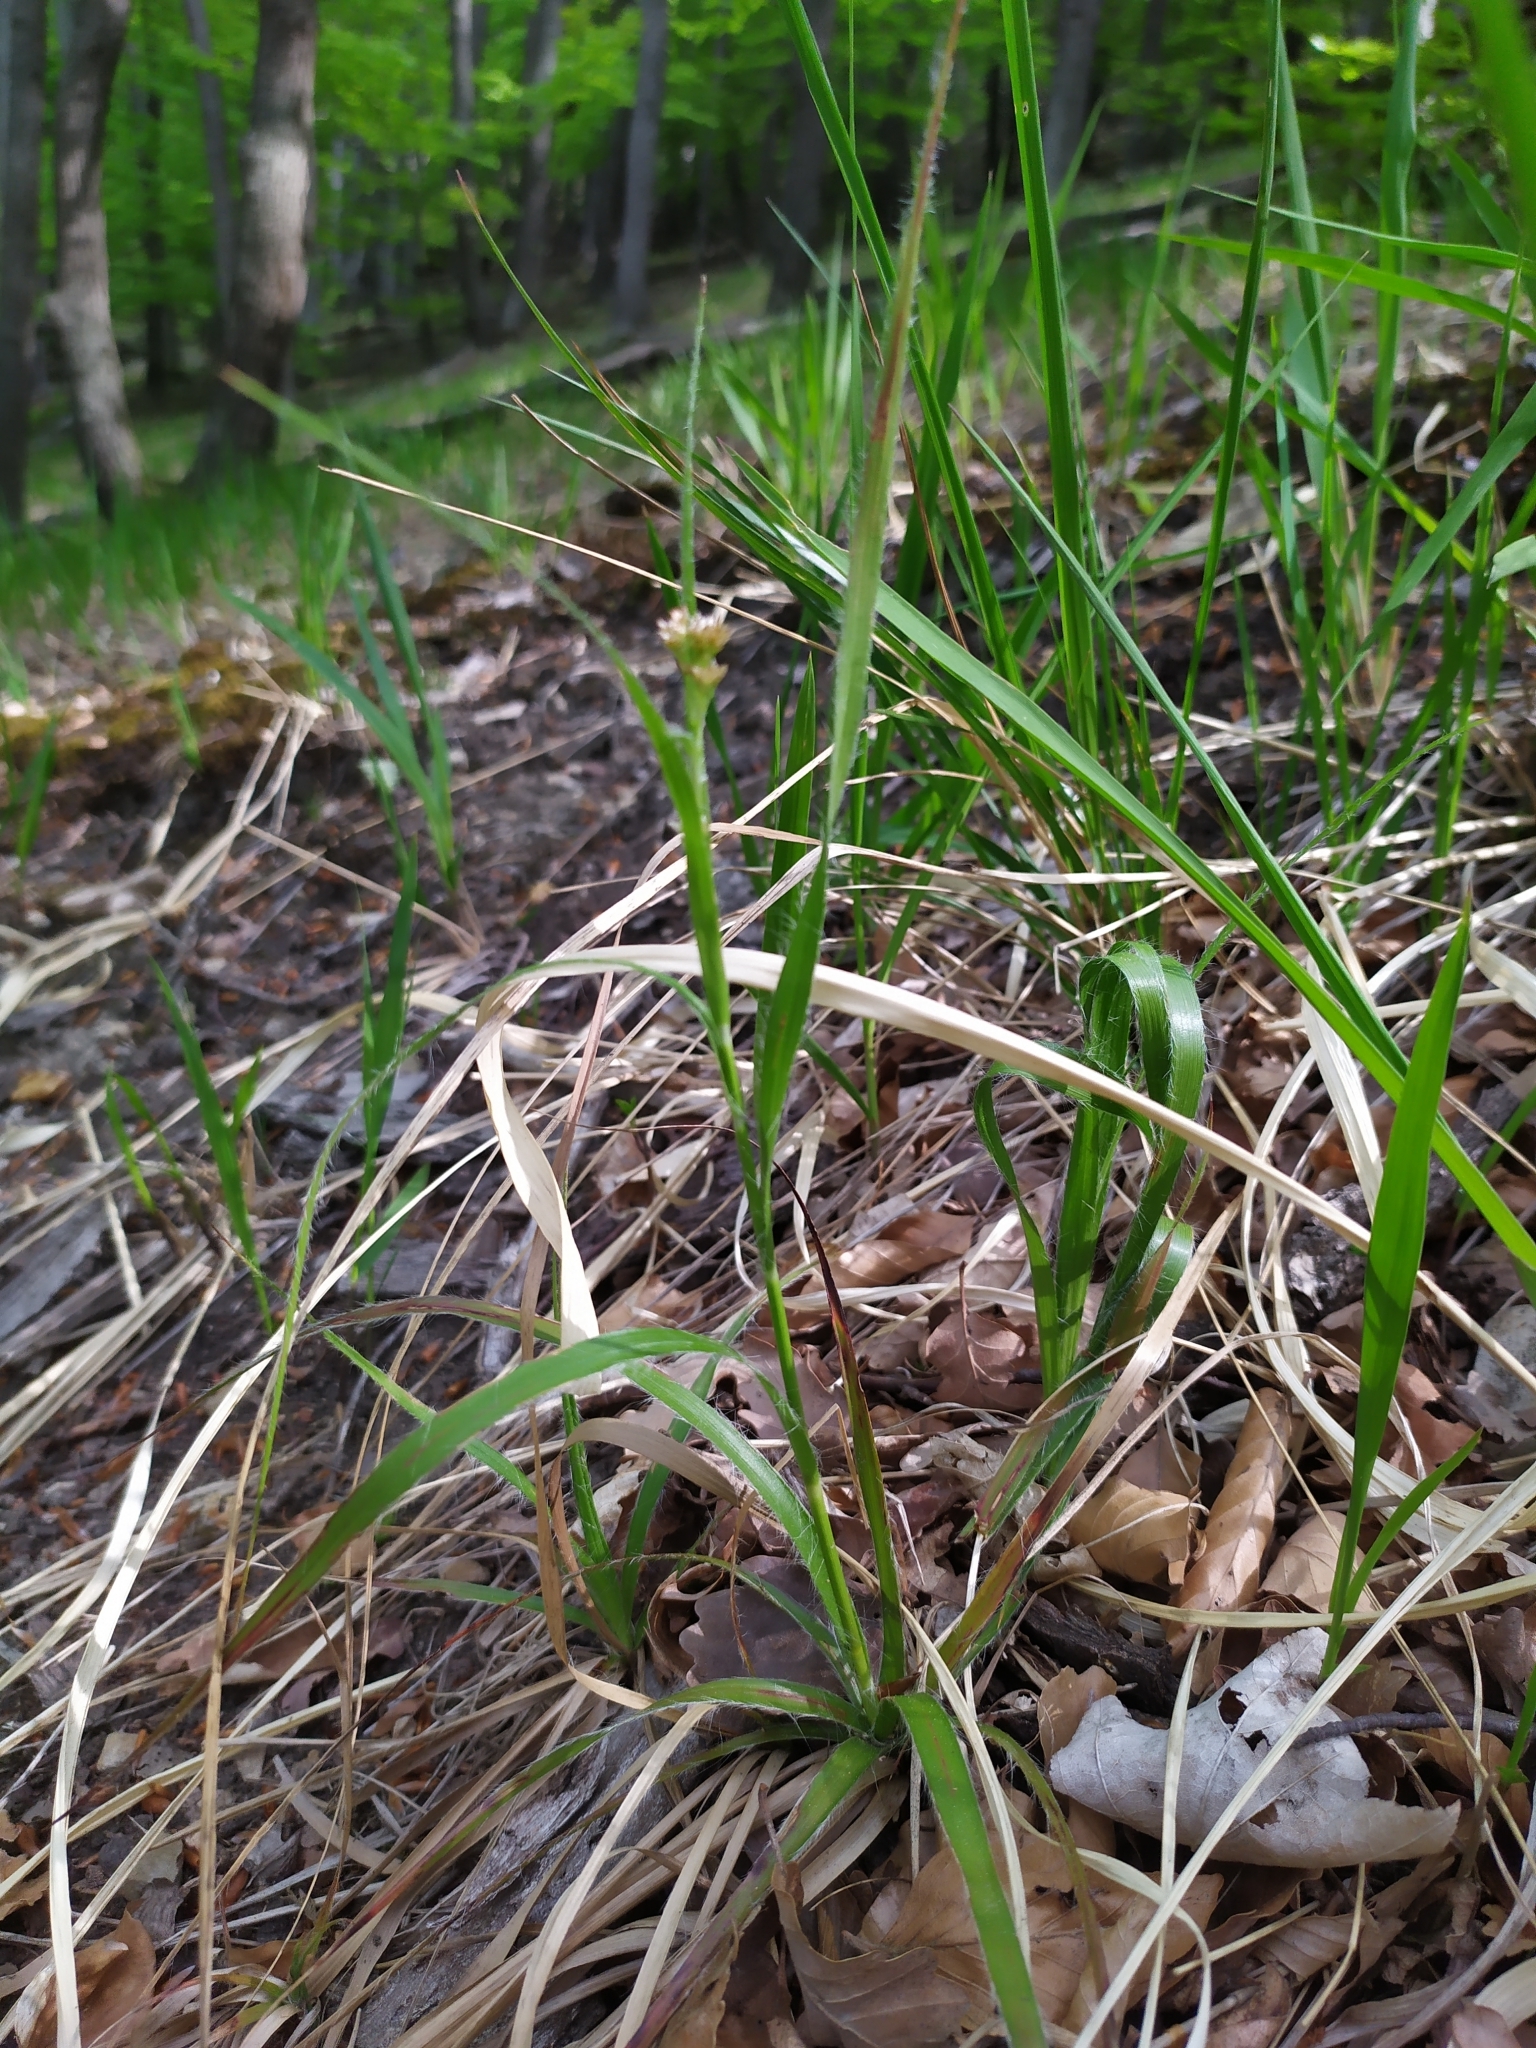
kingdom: Plantae
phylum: Tracheophyta
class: Liliopsida
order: Poales
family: Juncaceae
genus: Luzula
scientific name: Luzula luzuloides
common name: White wood-rush
